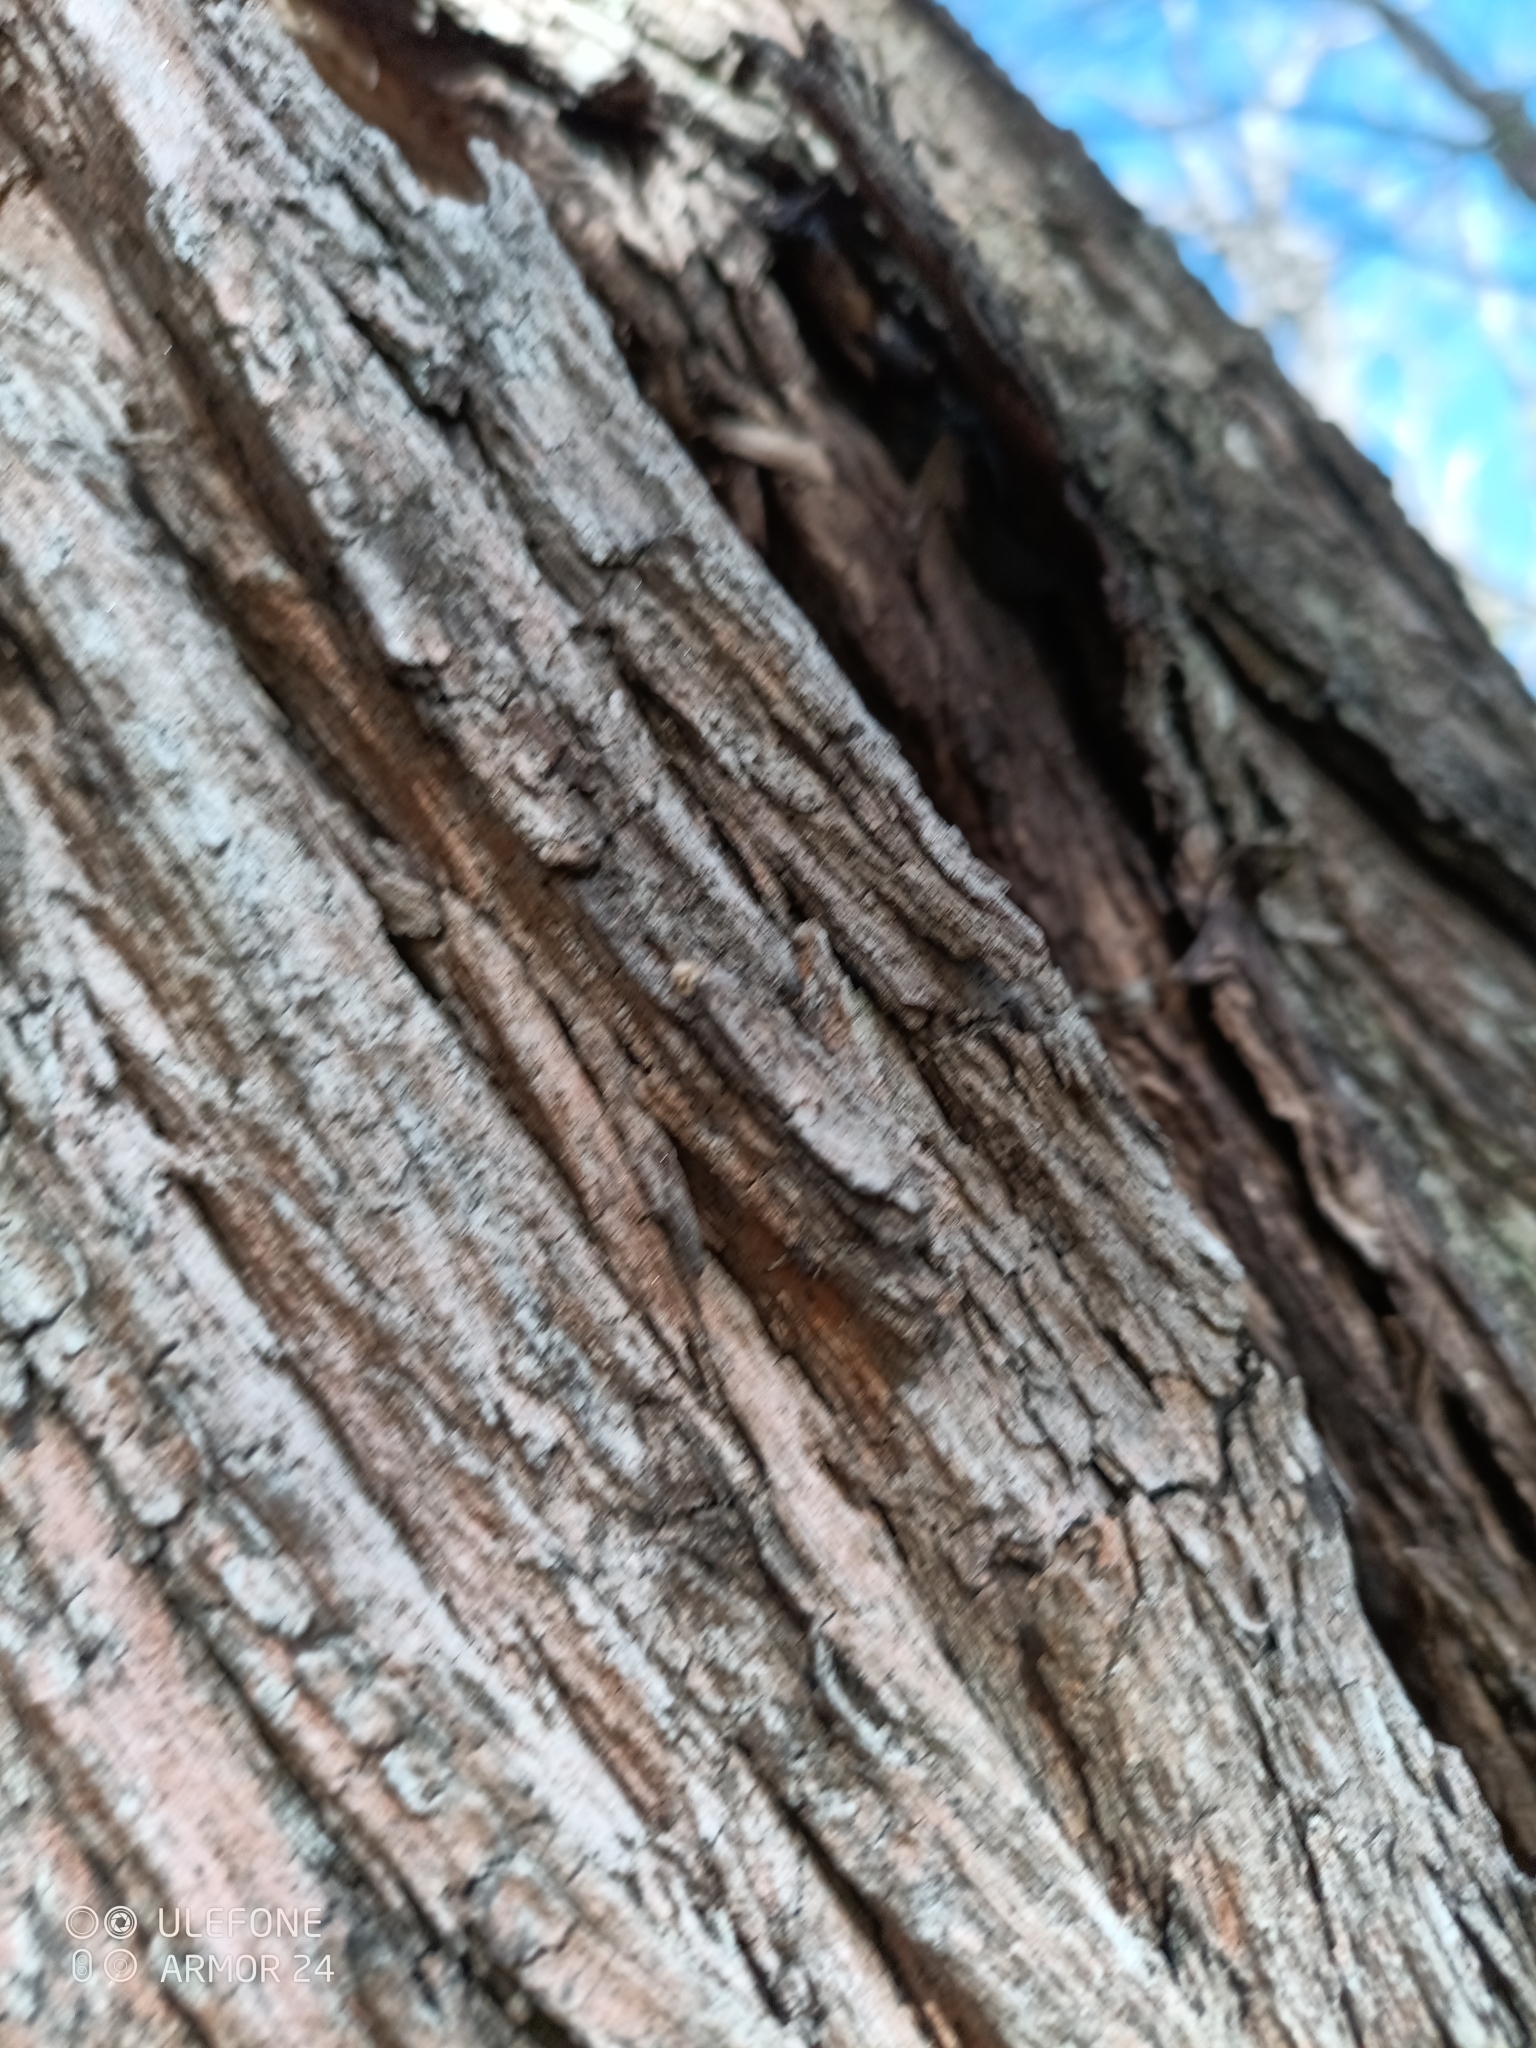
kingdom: Animalia
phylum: Arthropoda
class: Insecta
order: Hymenoptera
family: Apidae
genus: Apis
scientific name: Apis mellifera
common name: Honey bee
